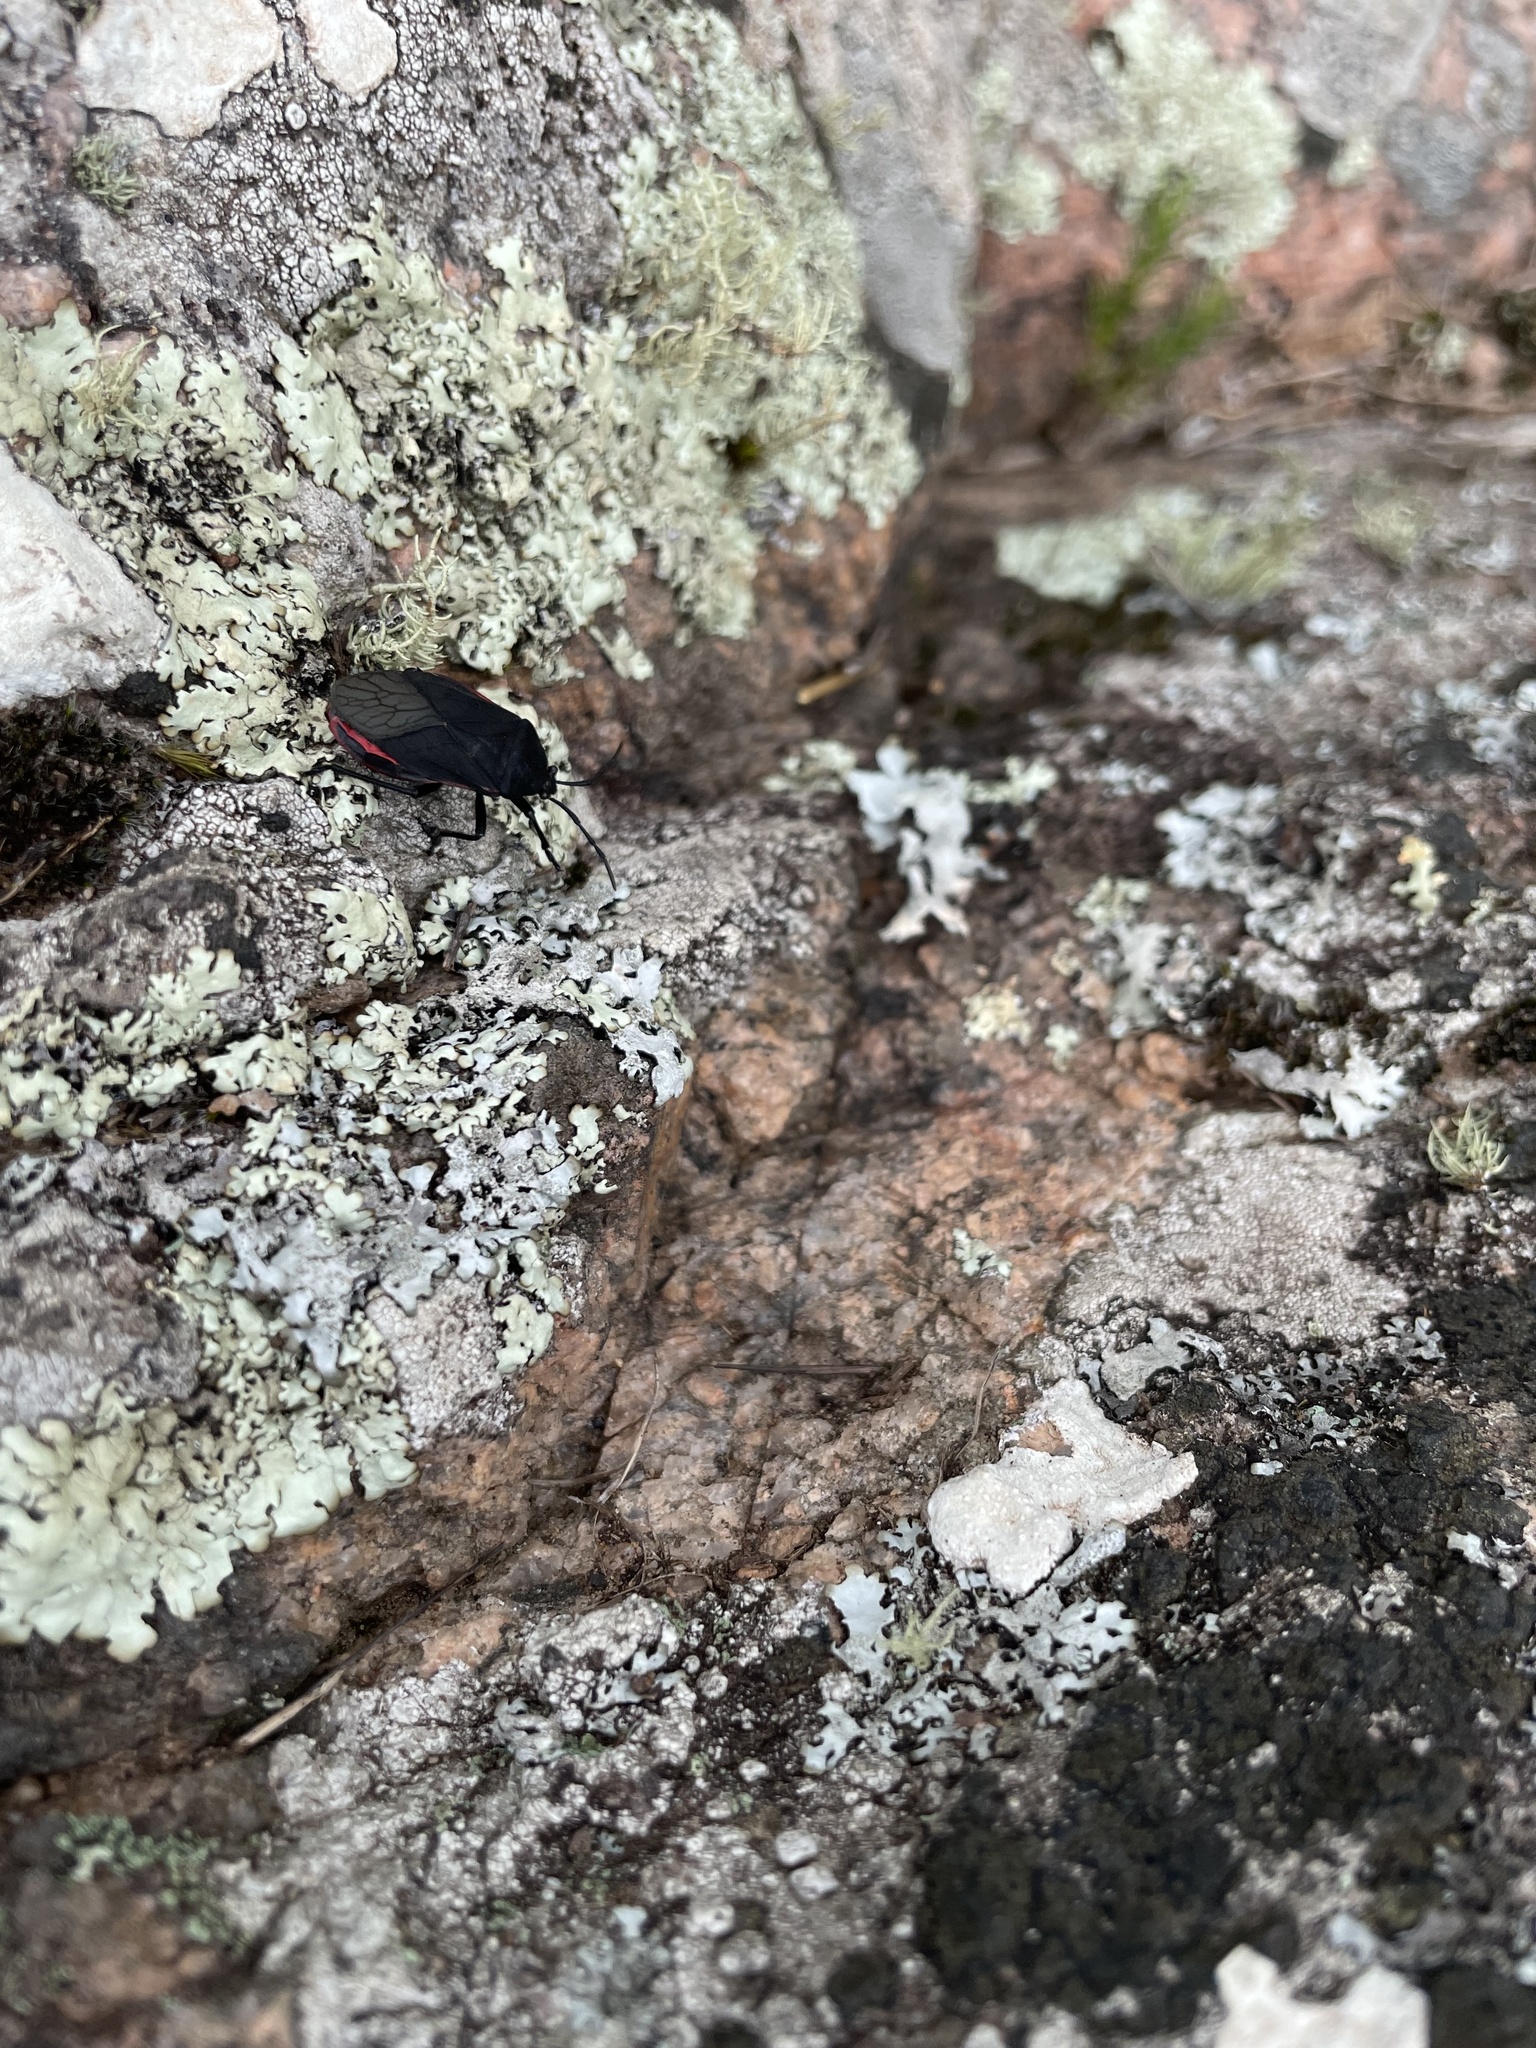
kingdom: Animalia
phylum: Arthropoda
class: Insecta
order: Hemiptera
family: Largidae
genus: Largus
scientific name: Largus rufipennis
